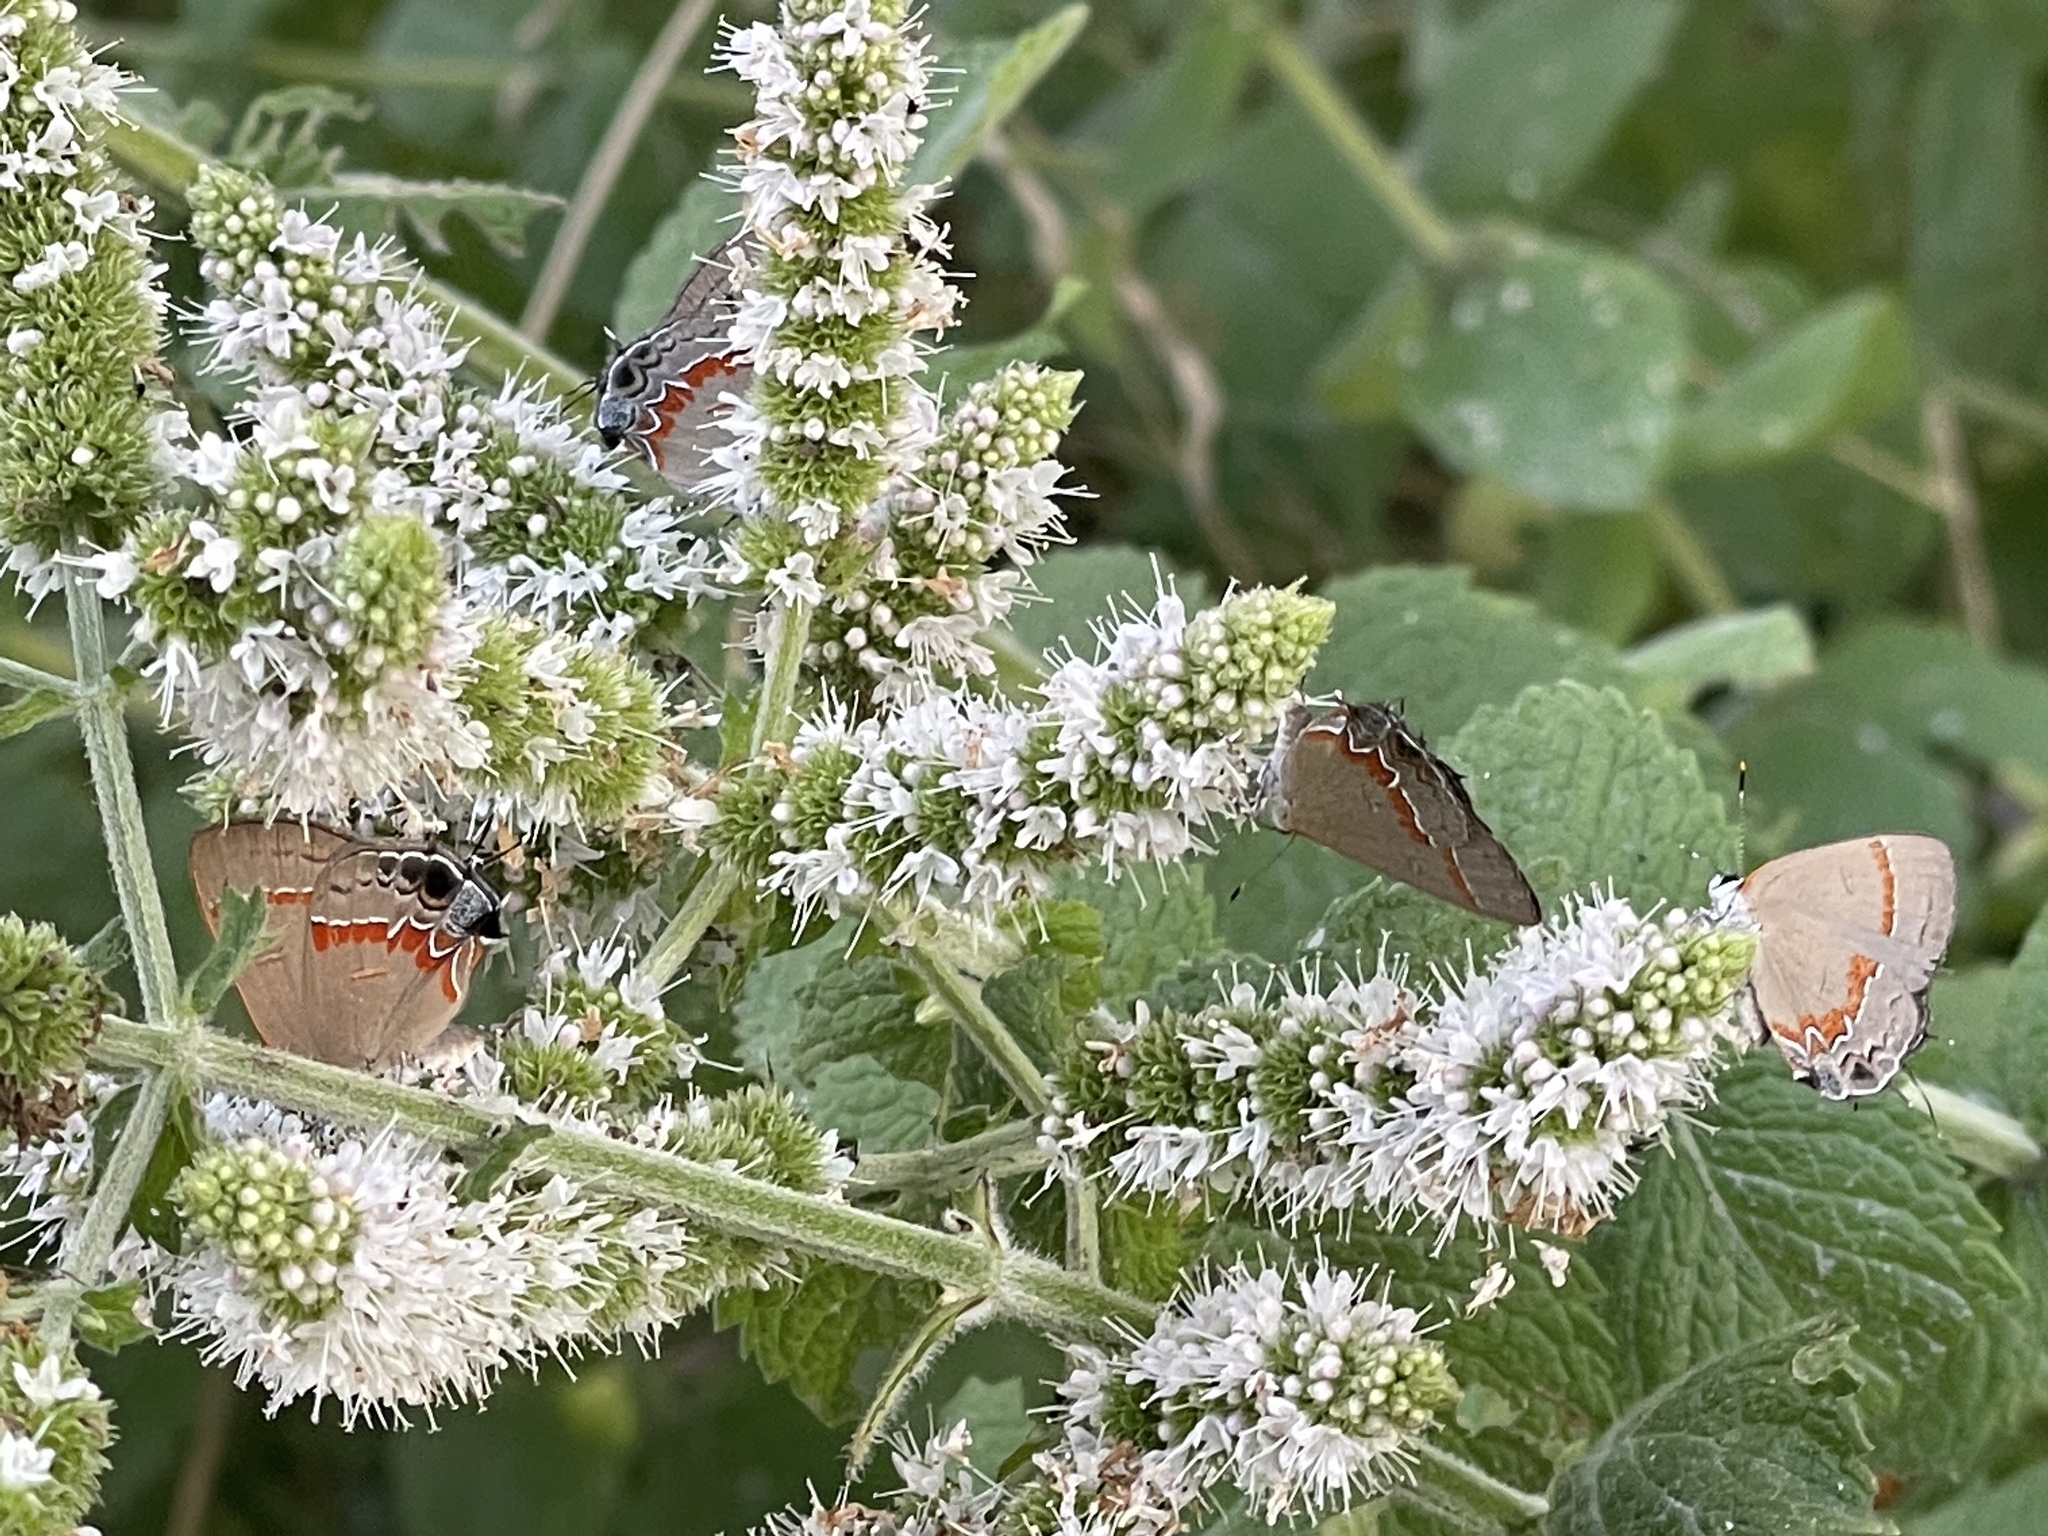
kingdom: Animalia
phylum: Arthropoda
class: Insecta
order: Lepidoptera
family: Lycaenidae
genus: Calycopis
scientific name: Calycopis cecrops
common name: Red-banded hairstreak
